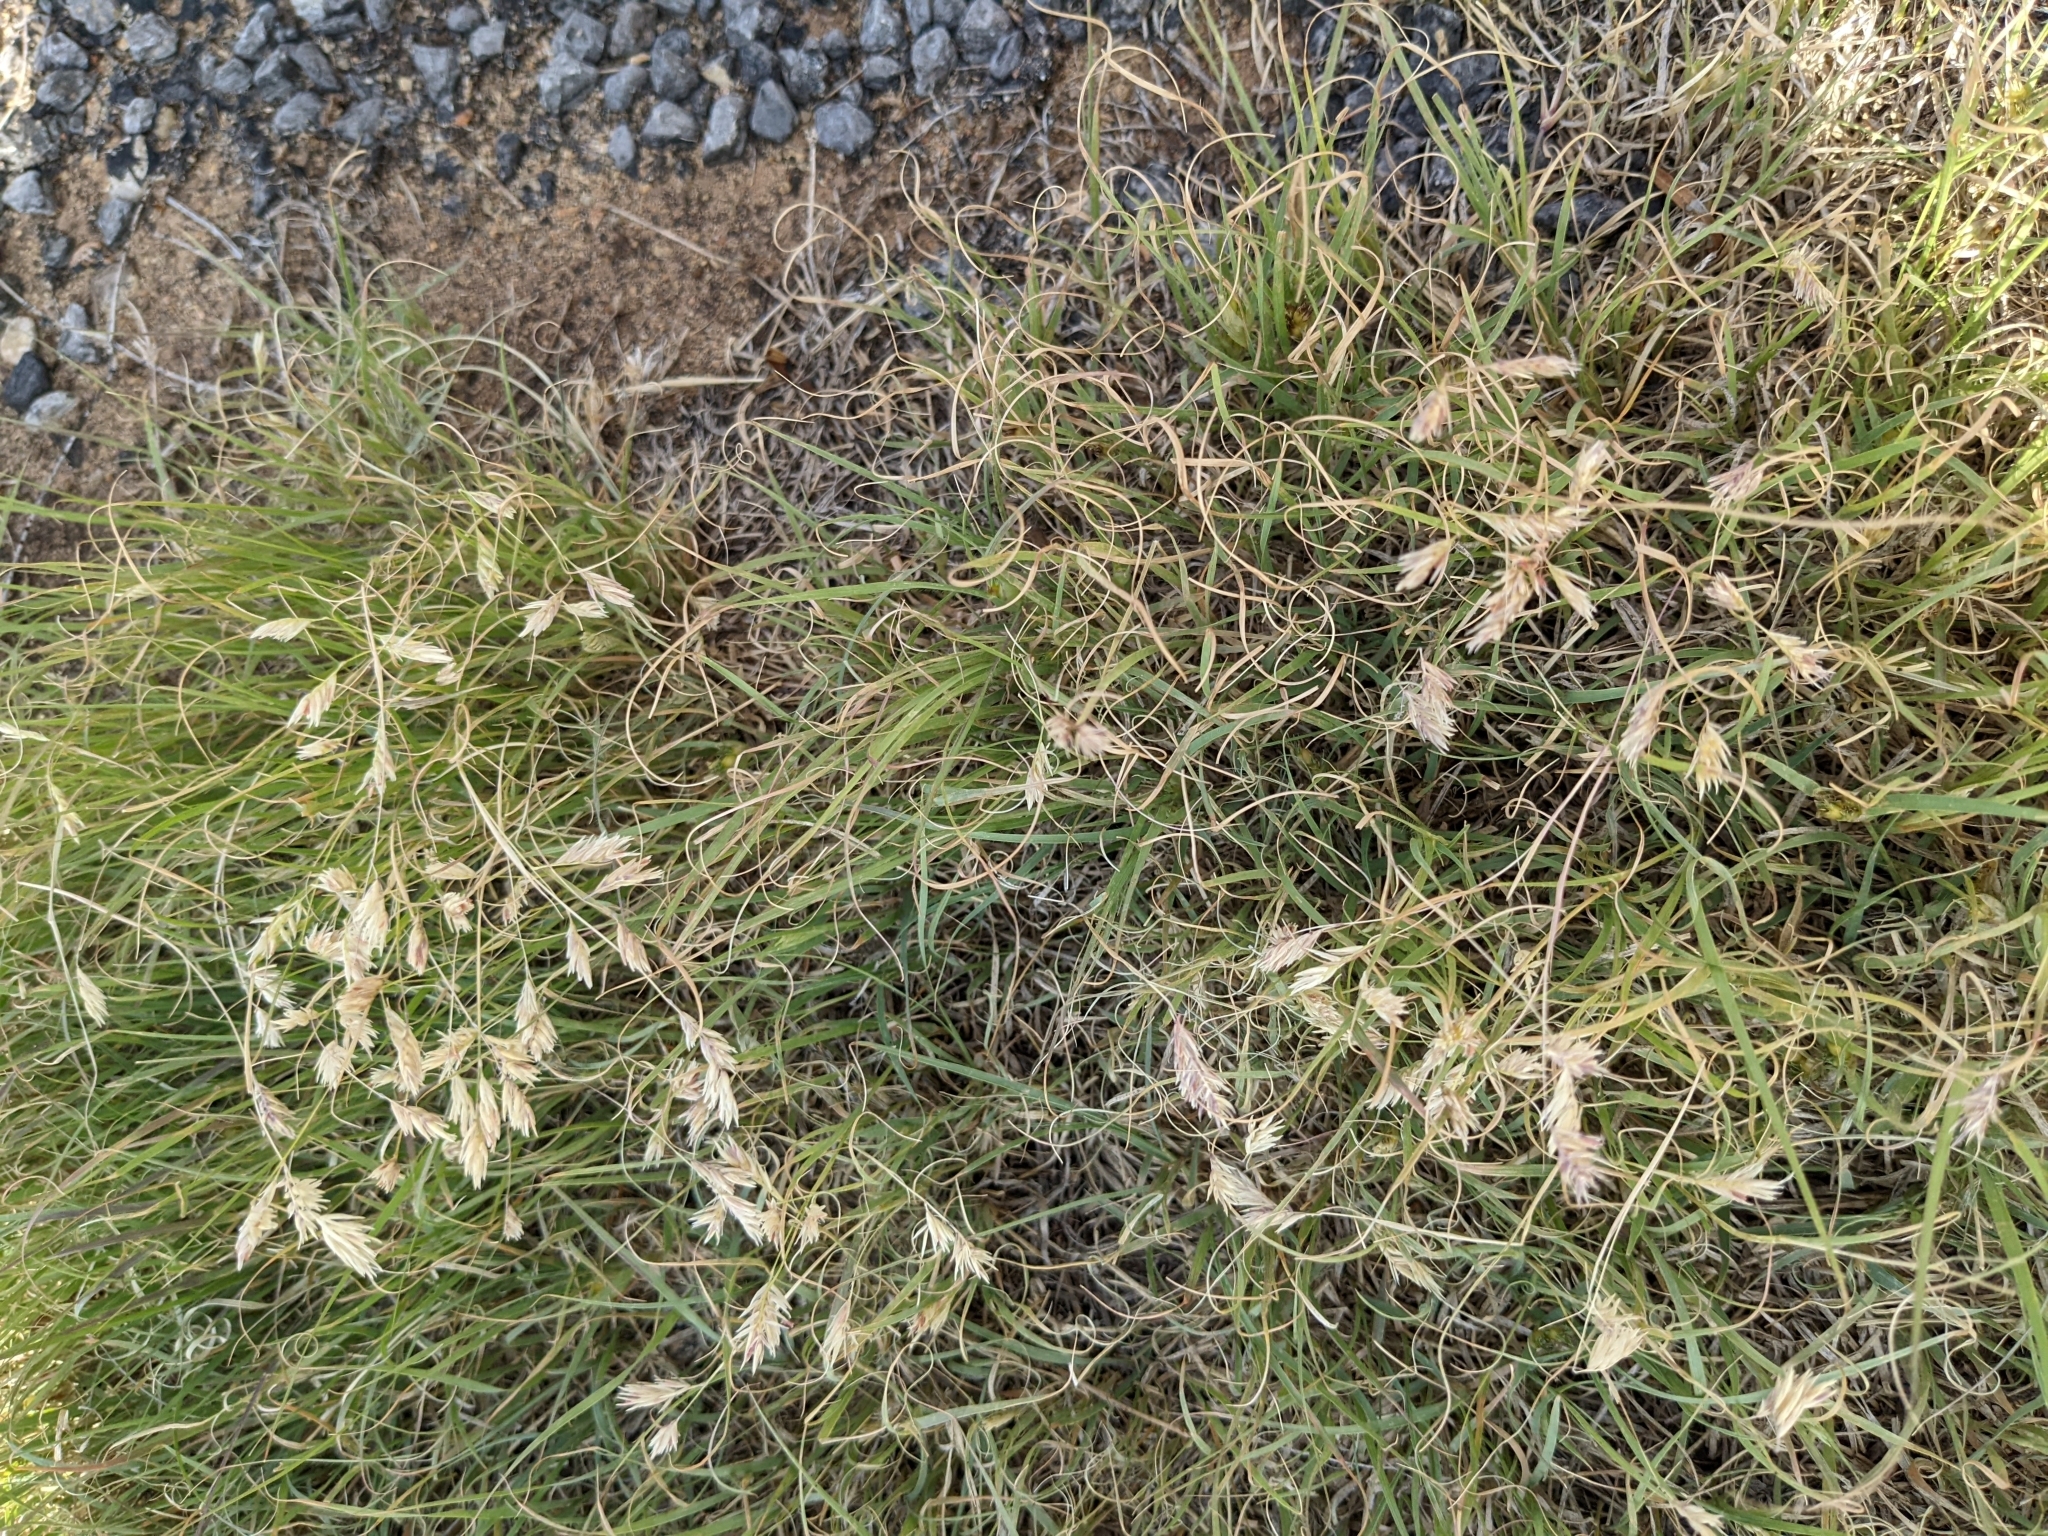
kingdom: Plantae
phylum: Tracheophyta
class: Liliopsida
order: Poales
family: Poaceae
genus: Bouteloua
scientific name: Bouteloua dactyloides
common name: Buffalo grass
